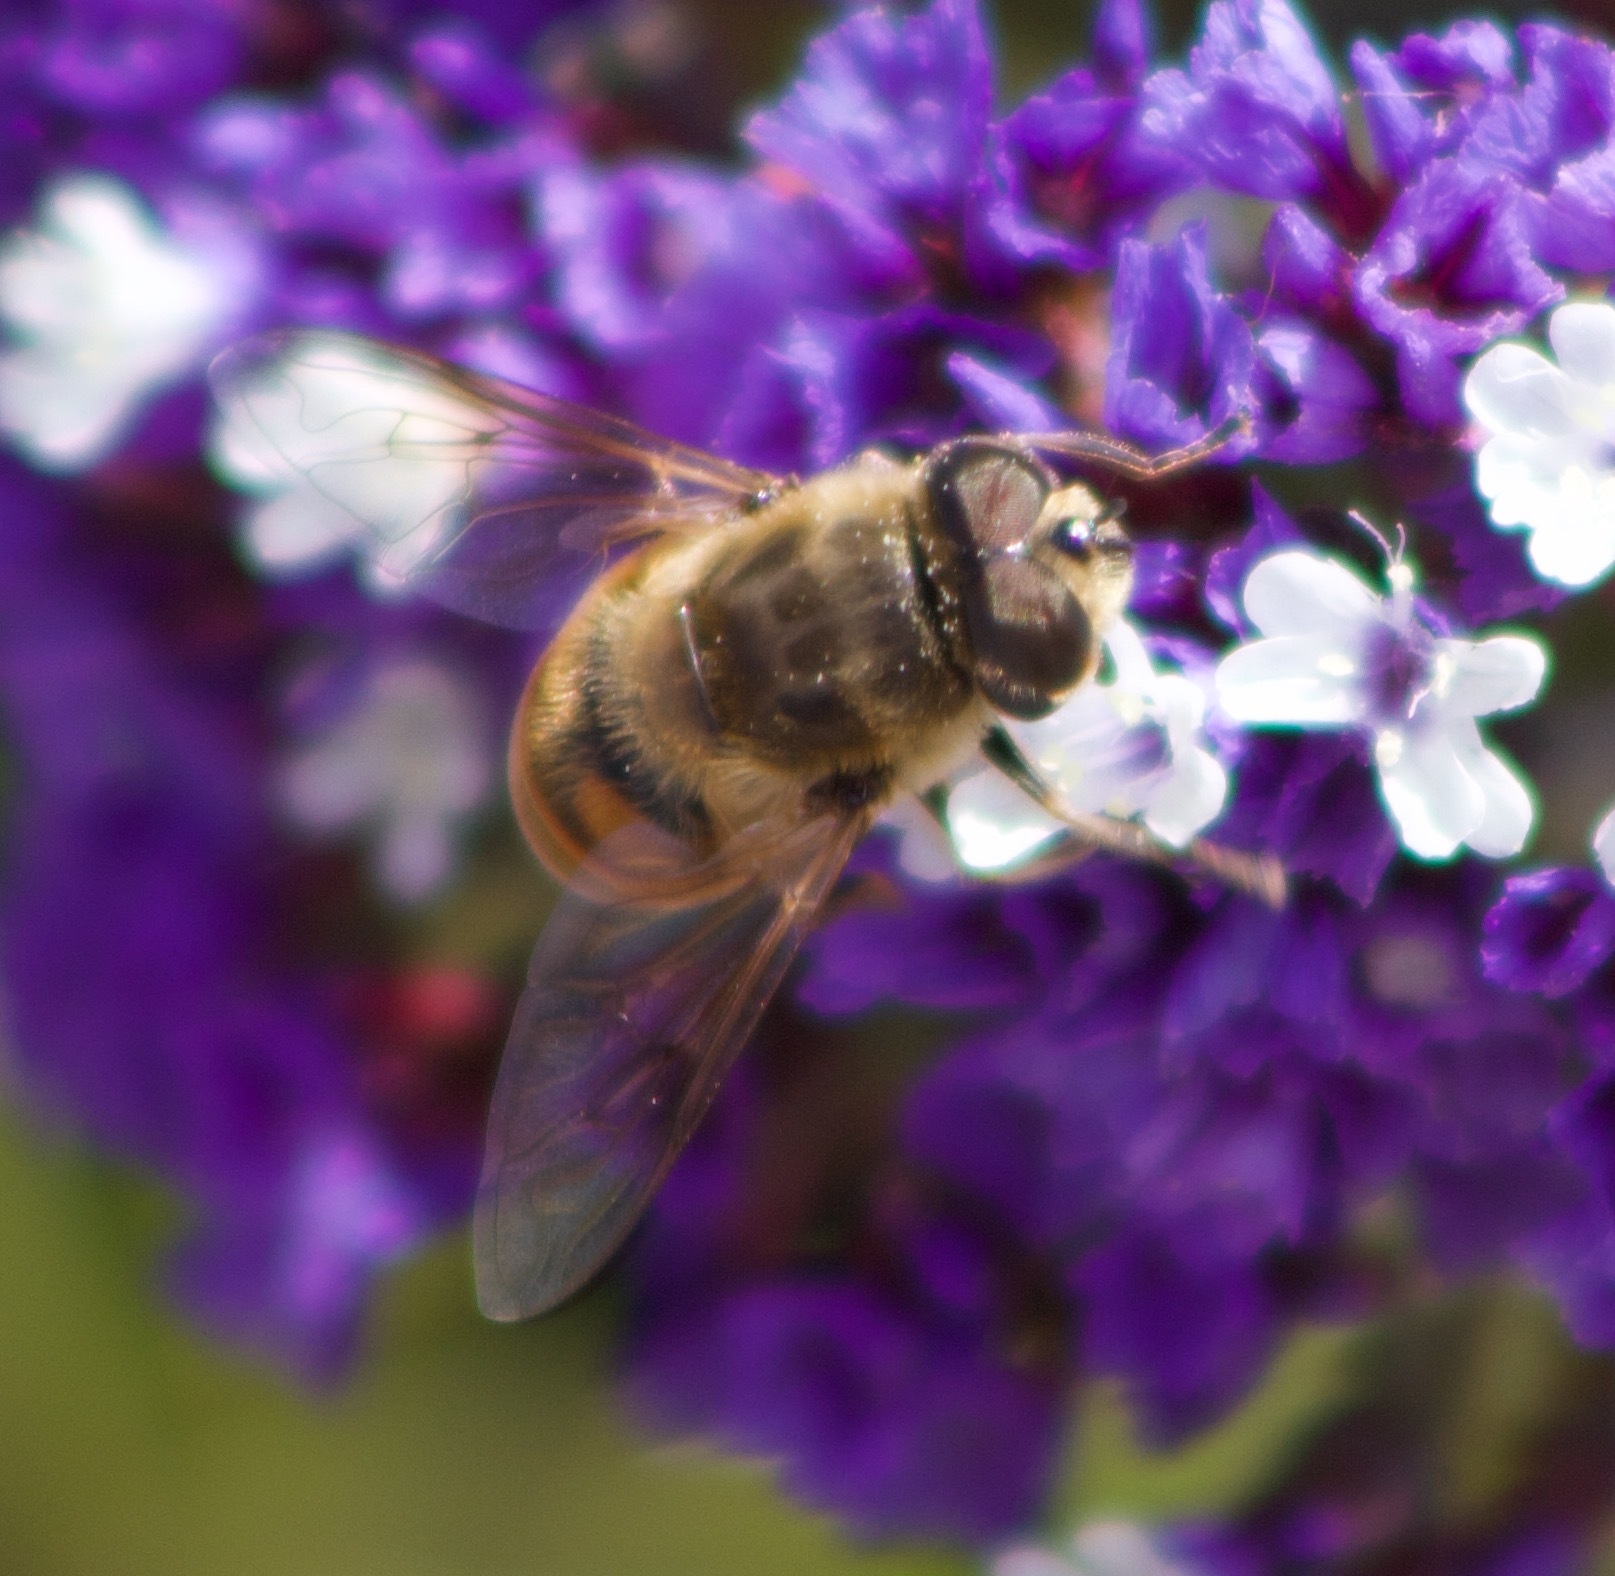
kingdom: Animalia
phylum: Arthropoda
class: Insecta
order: Diptera
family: Syrphidae
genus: Eristalis
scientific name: Eristalis tenax
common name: Drone fly
